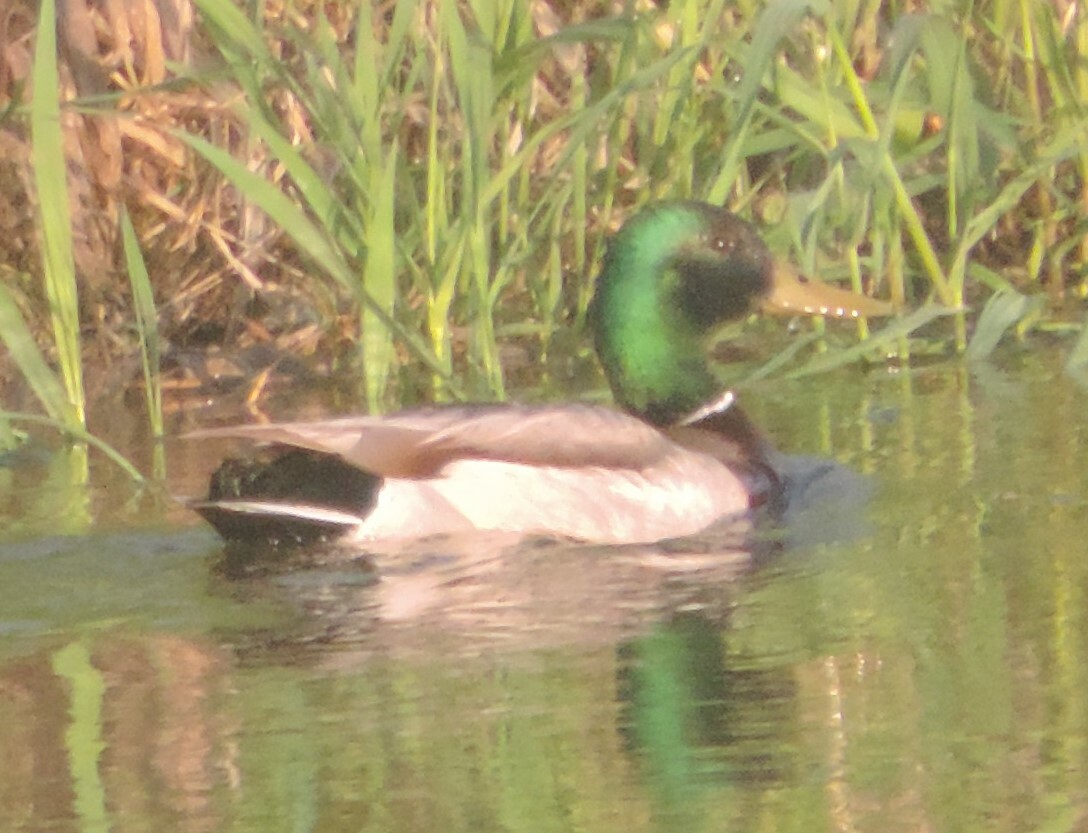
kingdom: Animalia
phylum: Chordata
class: Aves
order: Anseriformes
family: Anatidae
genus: Anas
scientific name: Anas platyrhynchos
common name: Mallard
